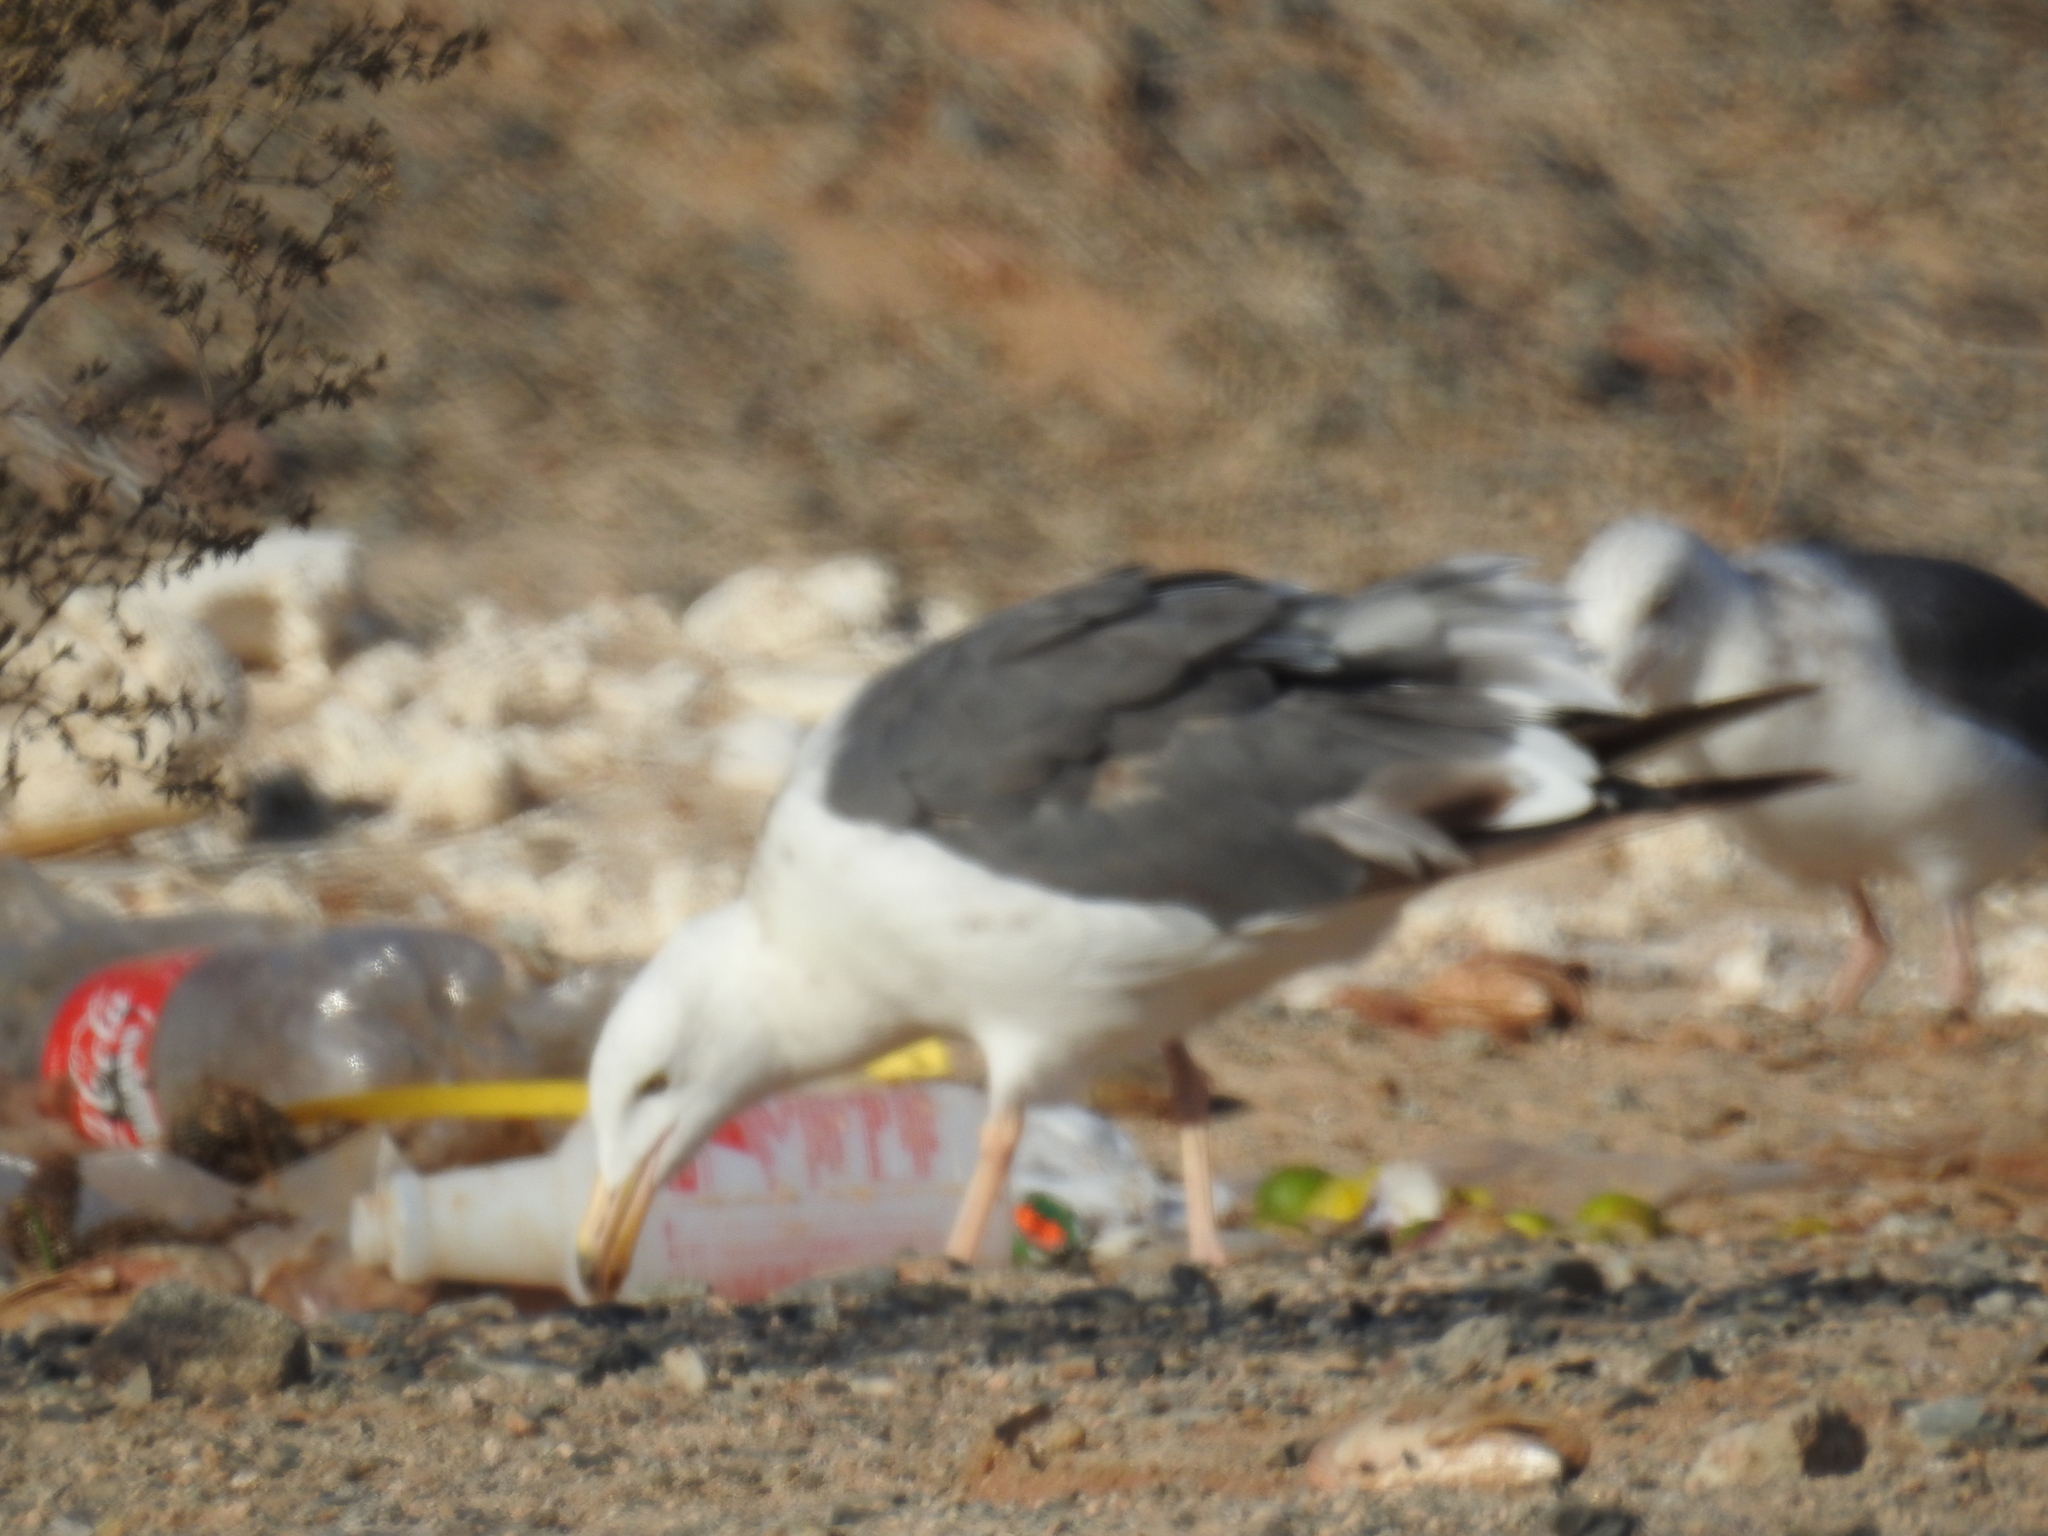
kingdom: Animalia
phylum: Chordata
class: Aves
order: Charadriiformes
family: Laridae
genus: Larus
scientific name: Larus livens
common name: Yellow-footed gull
